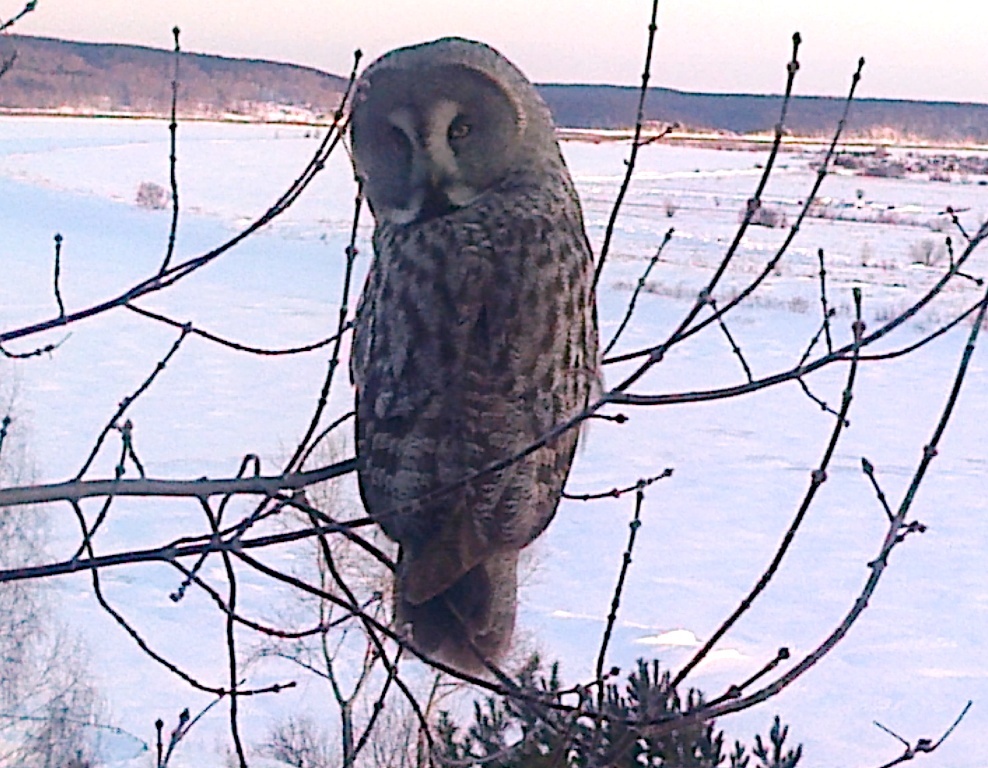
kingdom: Animalia
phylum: Chordata
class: Aves
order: Strigiformes
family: Strigidae
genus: Strix
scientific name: Strix nebulosa
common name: Great grey owl
